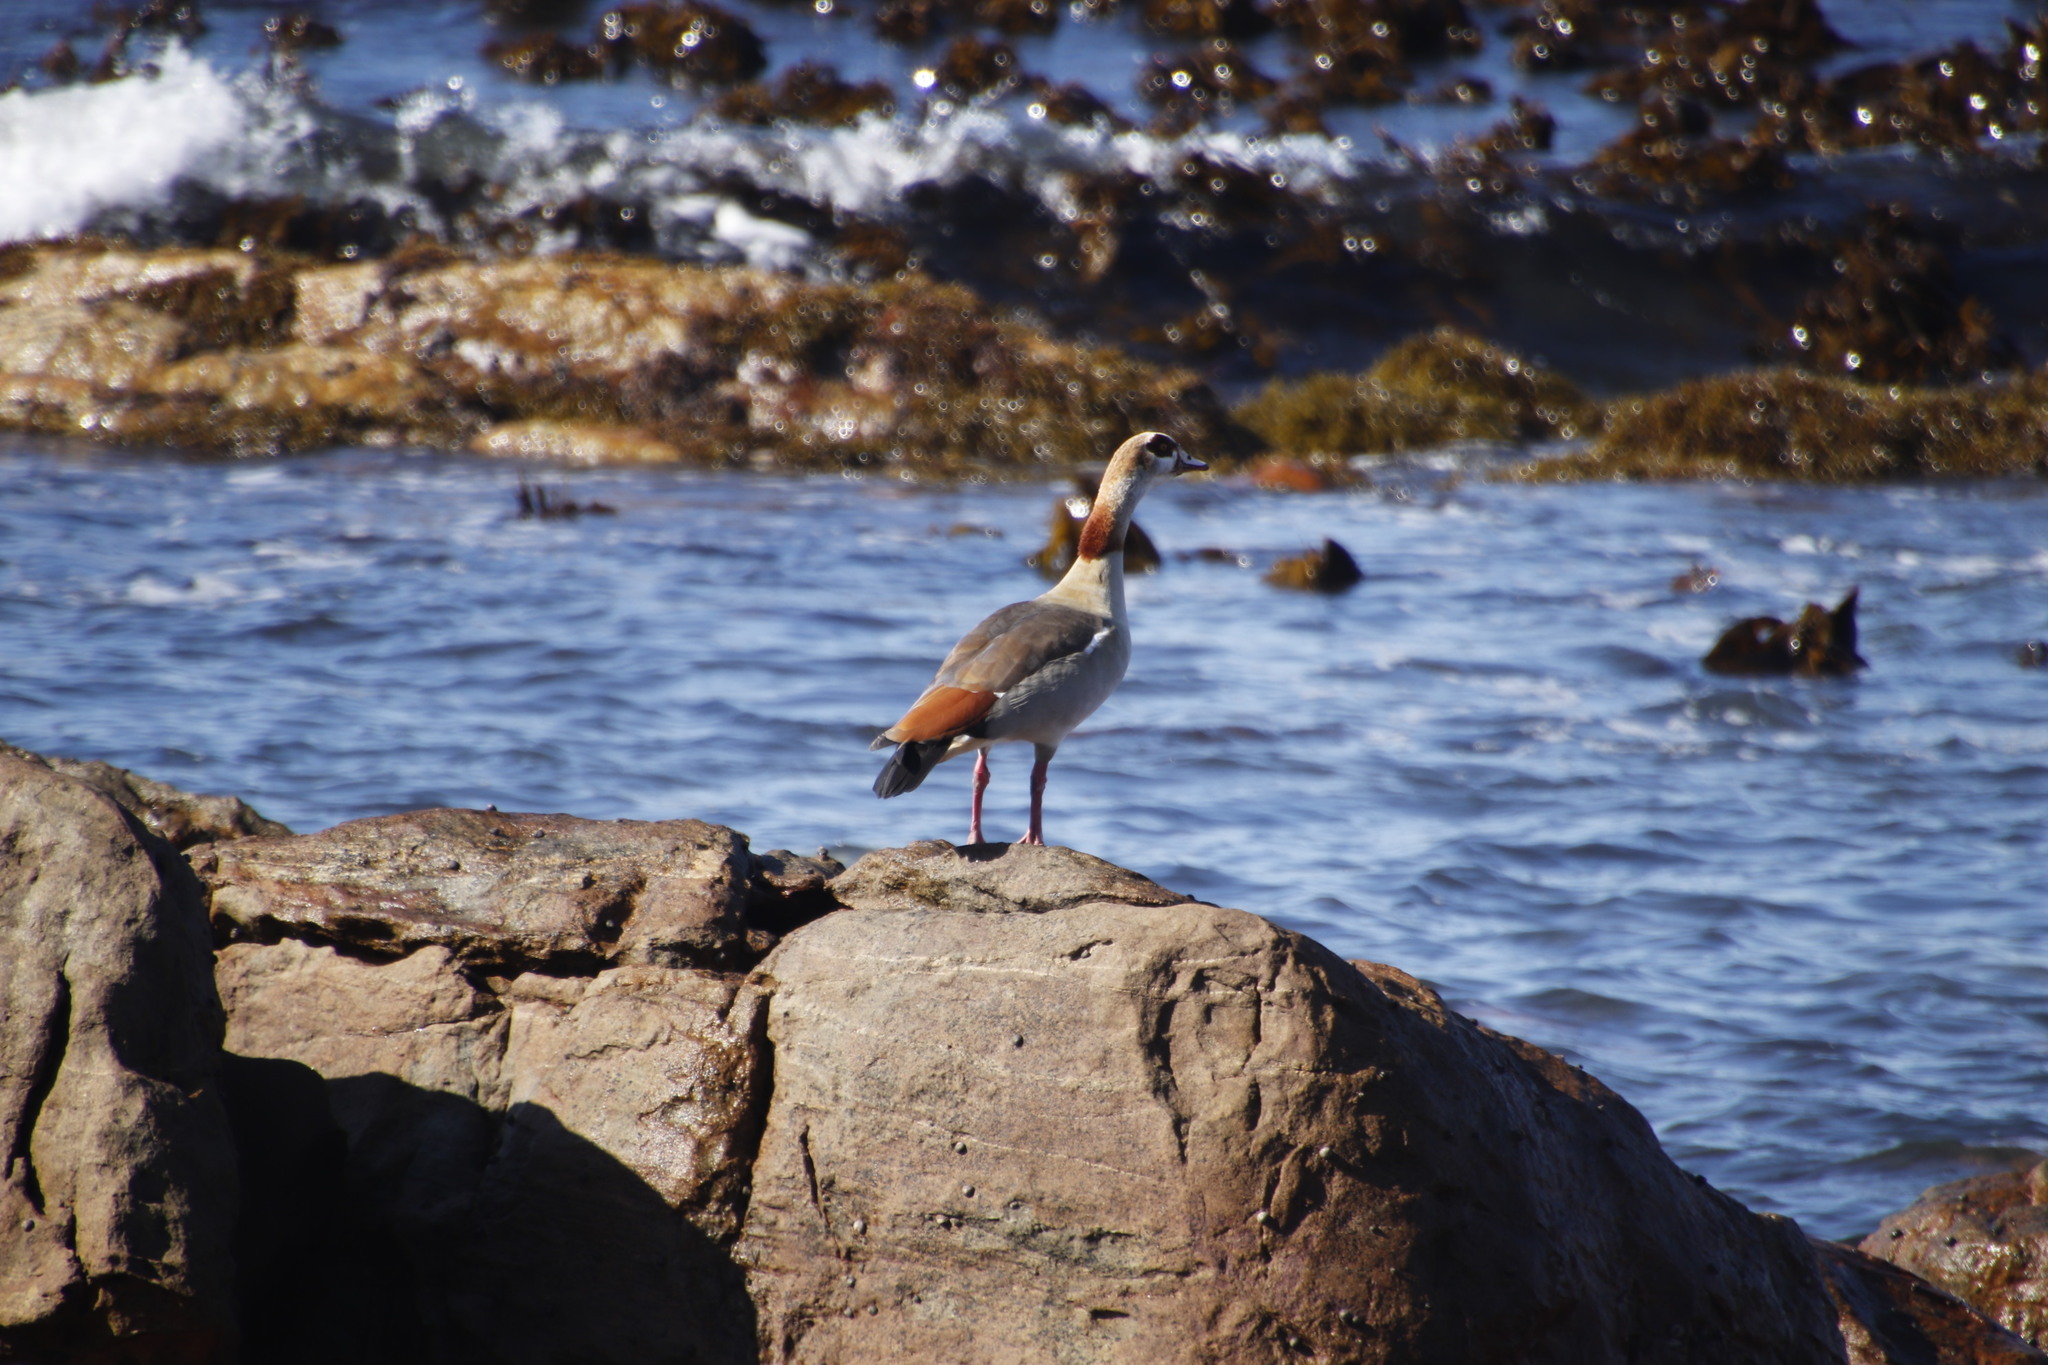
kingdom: Animalia
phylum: Chordata
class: Aves
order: Anseriformes
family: Anatidae
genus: Alopochen
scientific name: Alopochen aegyptiaca
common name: Egyptian goose
